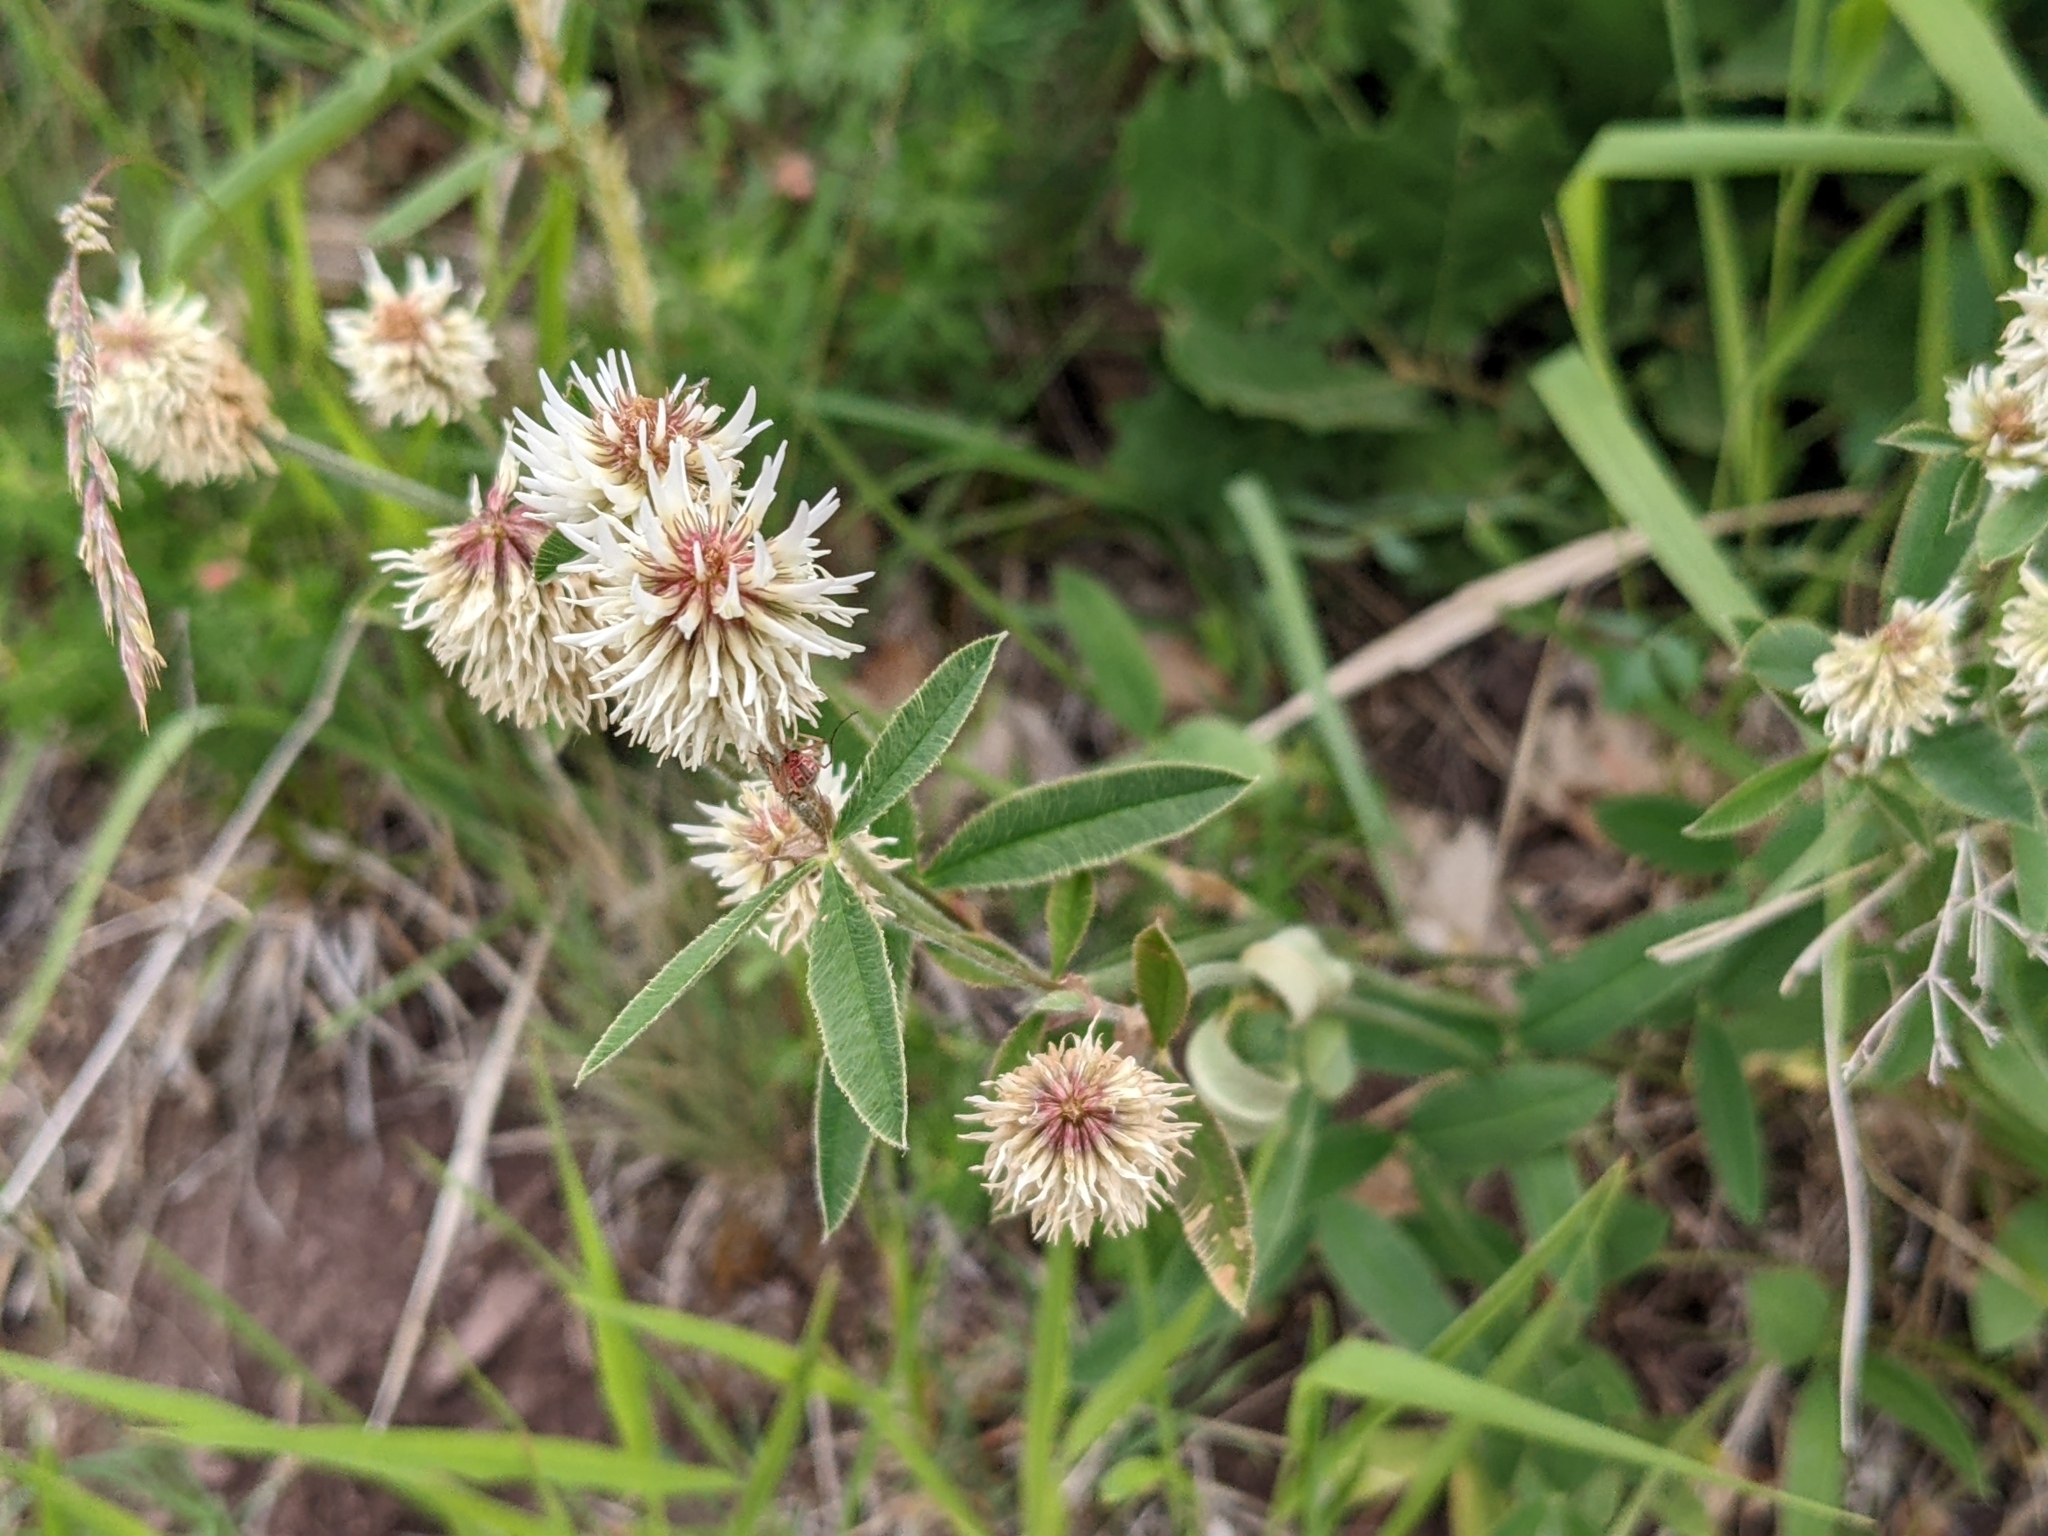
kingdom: Plantae
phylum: Tracheophyta
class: Magnoliopsida
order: Fabales
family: Fabaceae
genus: Trifolium
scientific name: Trifolium montanum
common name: Mountain clover
